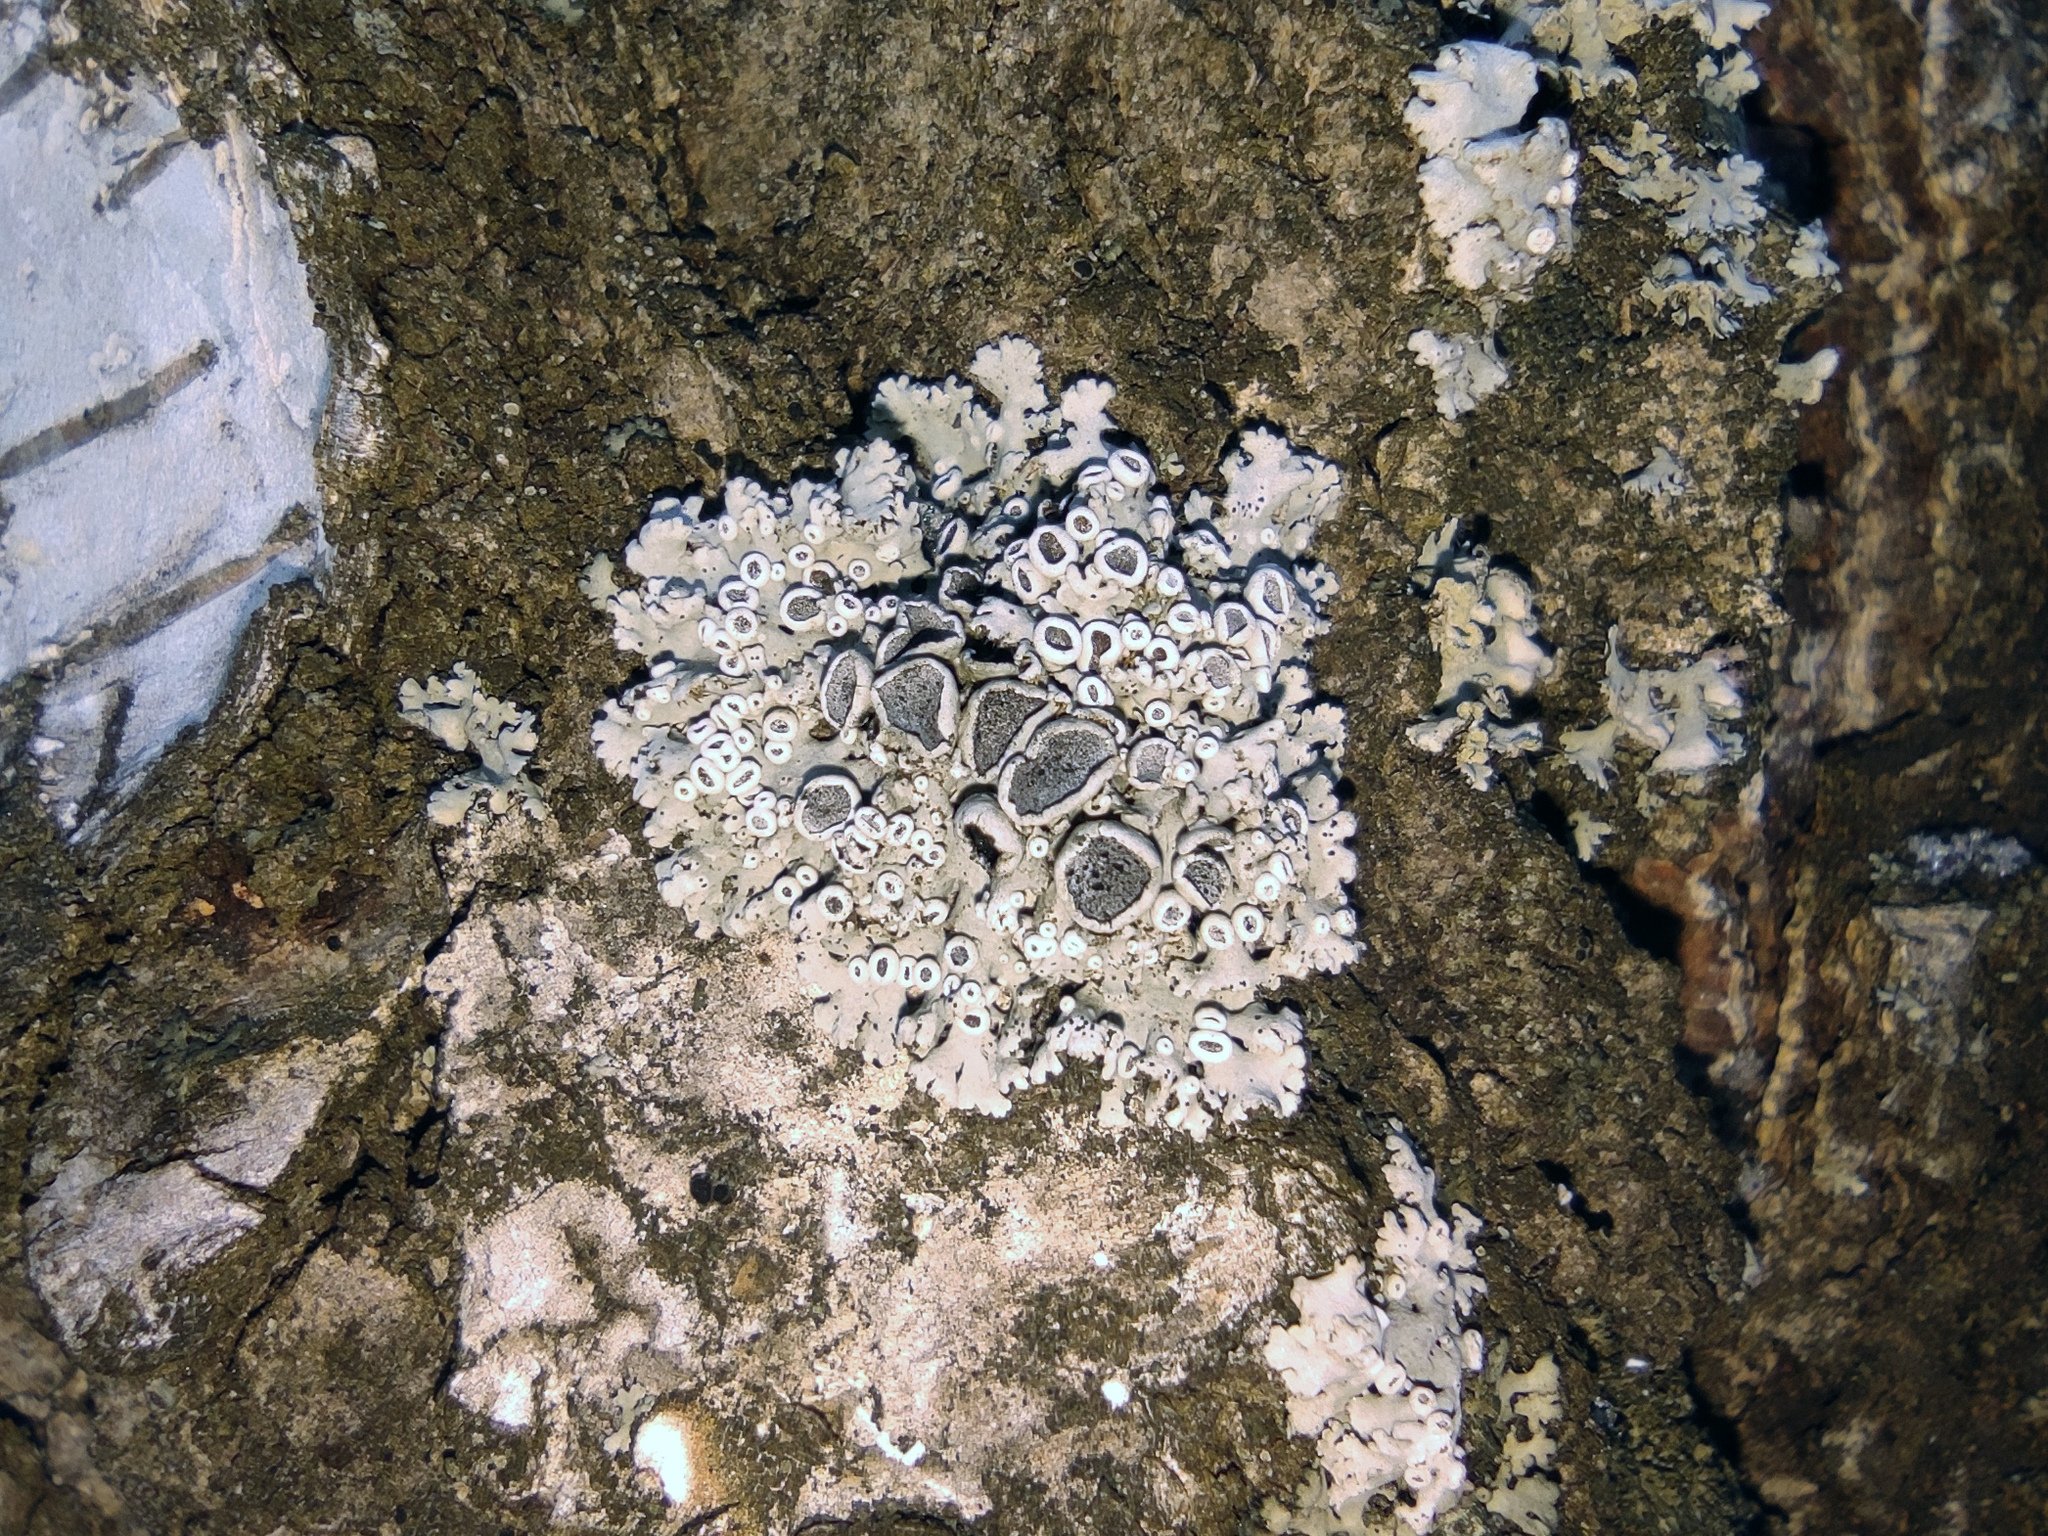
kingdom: Fungi
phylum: Ascomycota
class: Lecanoromycetes
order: Caliciales
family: Physciaceae
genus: Physcia
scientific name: Physcia stellaris
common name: Star rosette lichen
